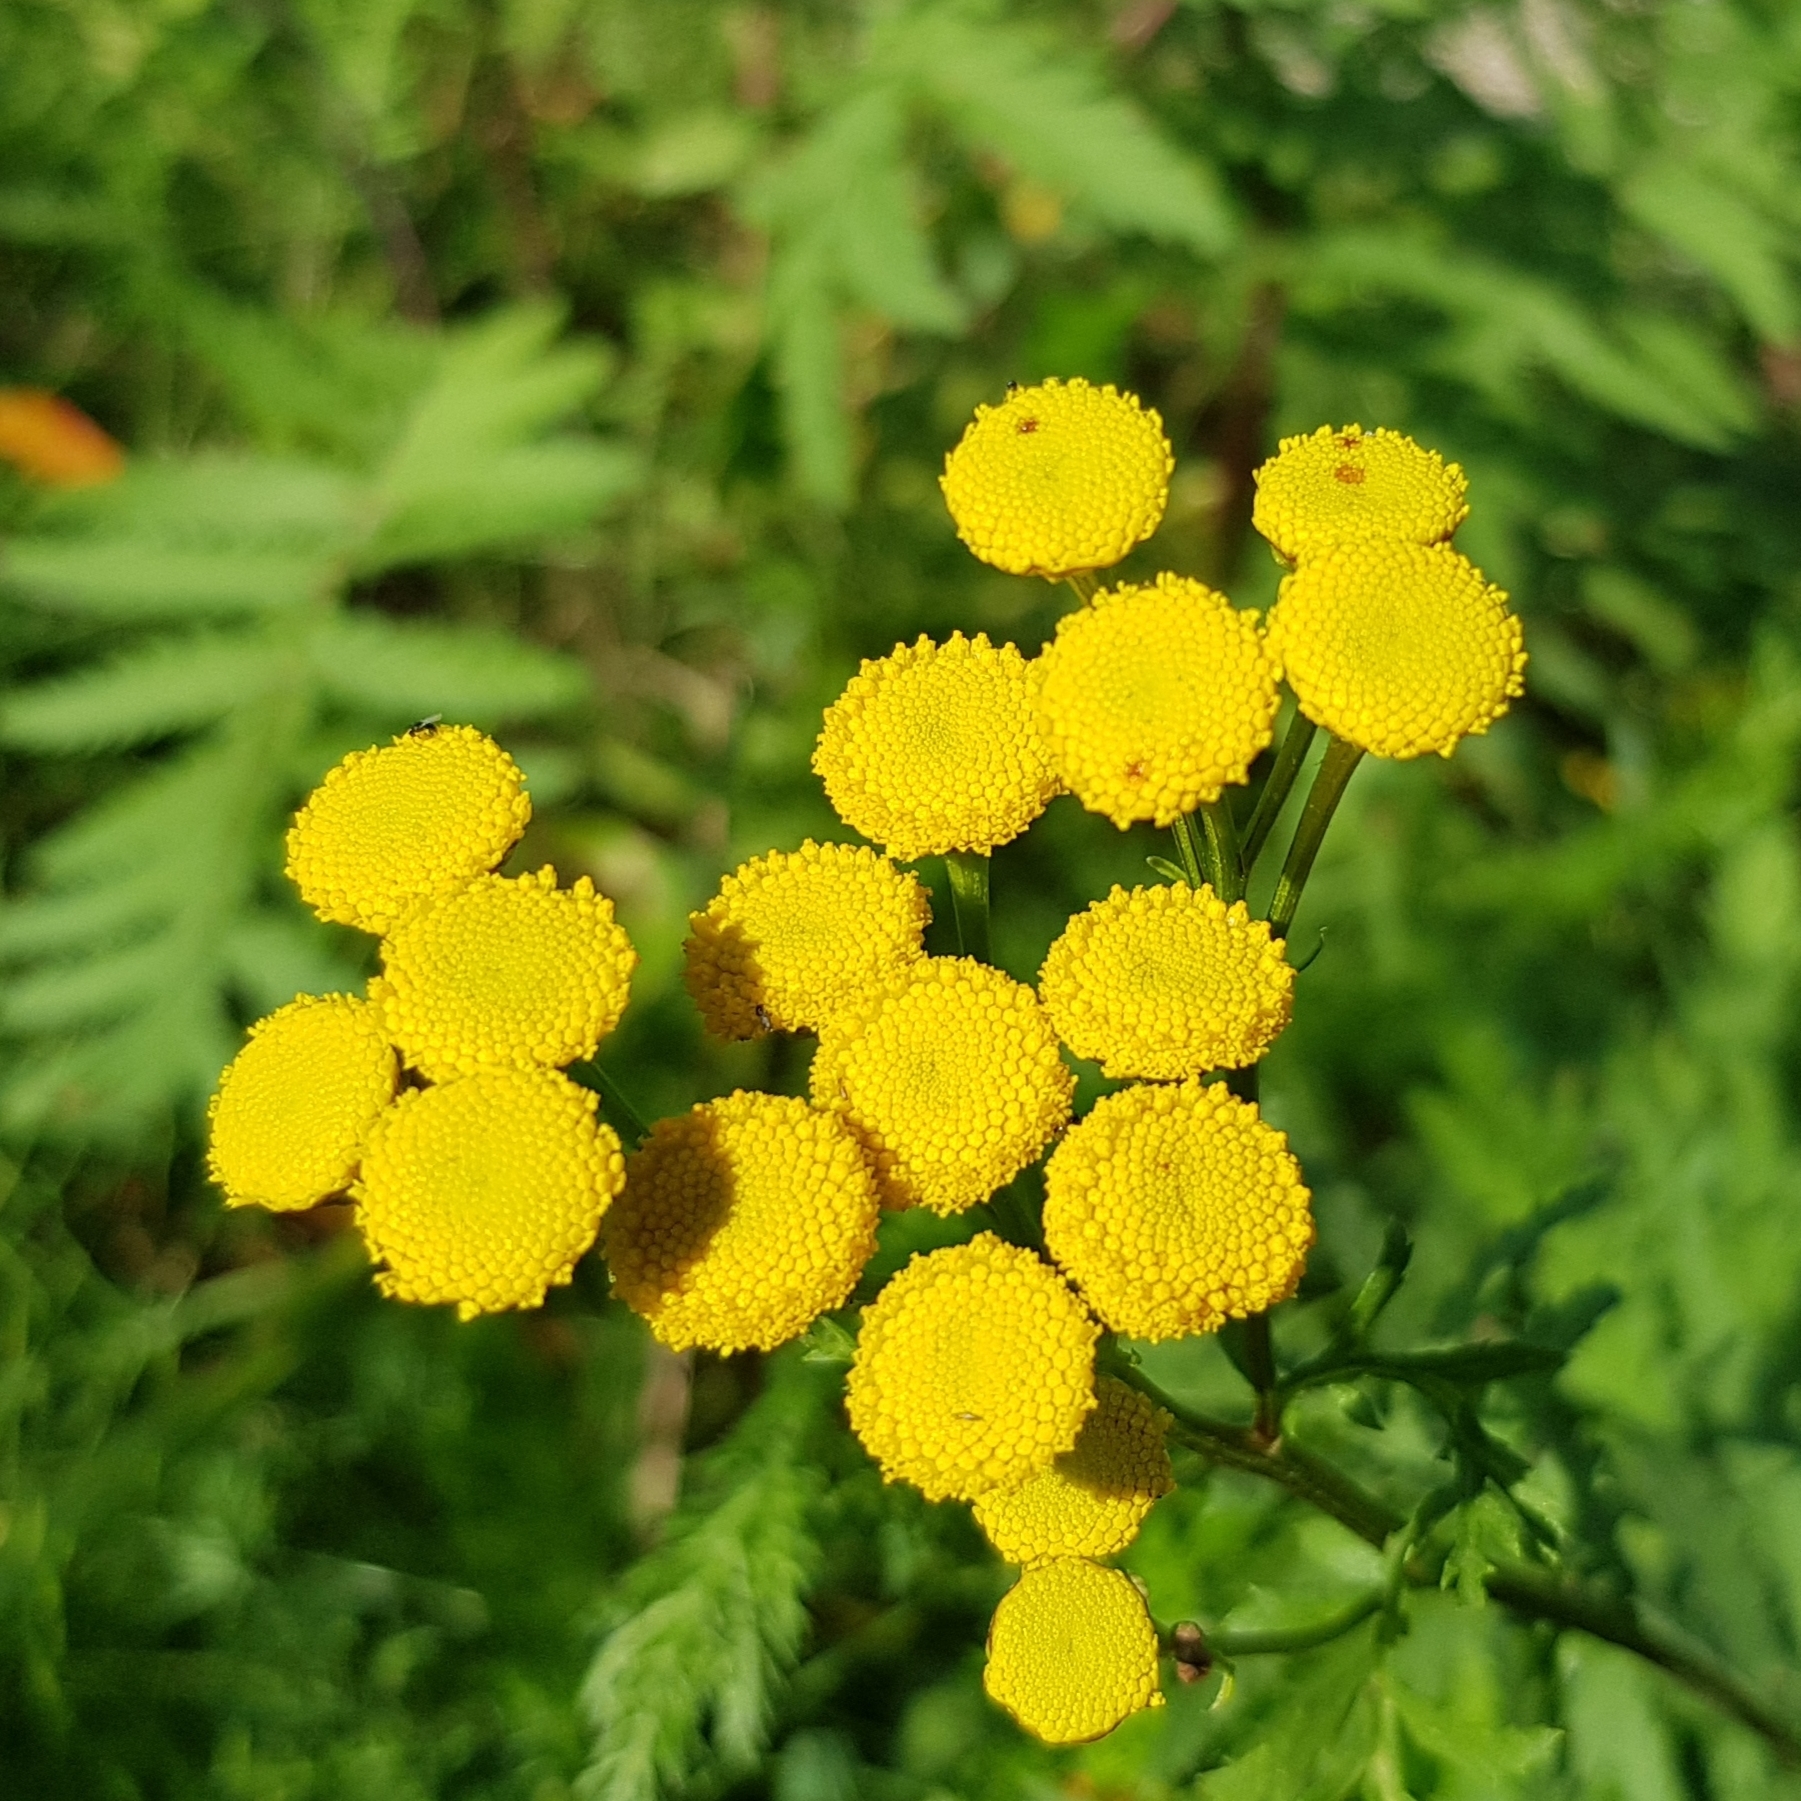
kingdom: Plantae
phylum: Tracheophyta
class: Magnoliopsida
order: Asterales
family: Asteraceae
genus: Tanacetum
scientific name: Tanacetum vulgare
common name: Common tansy
